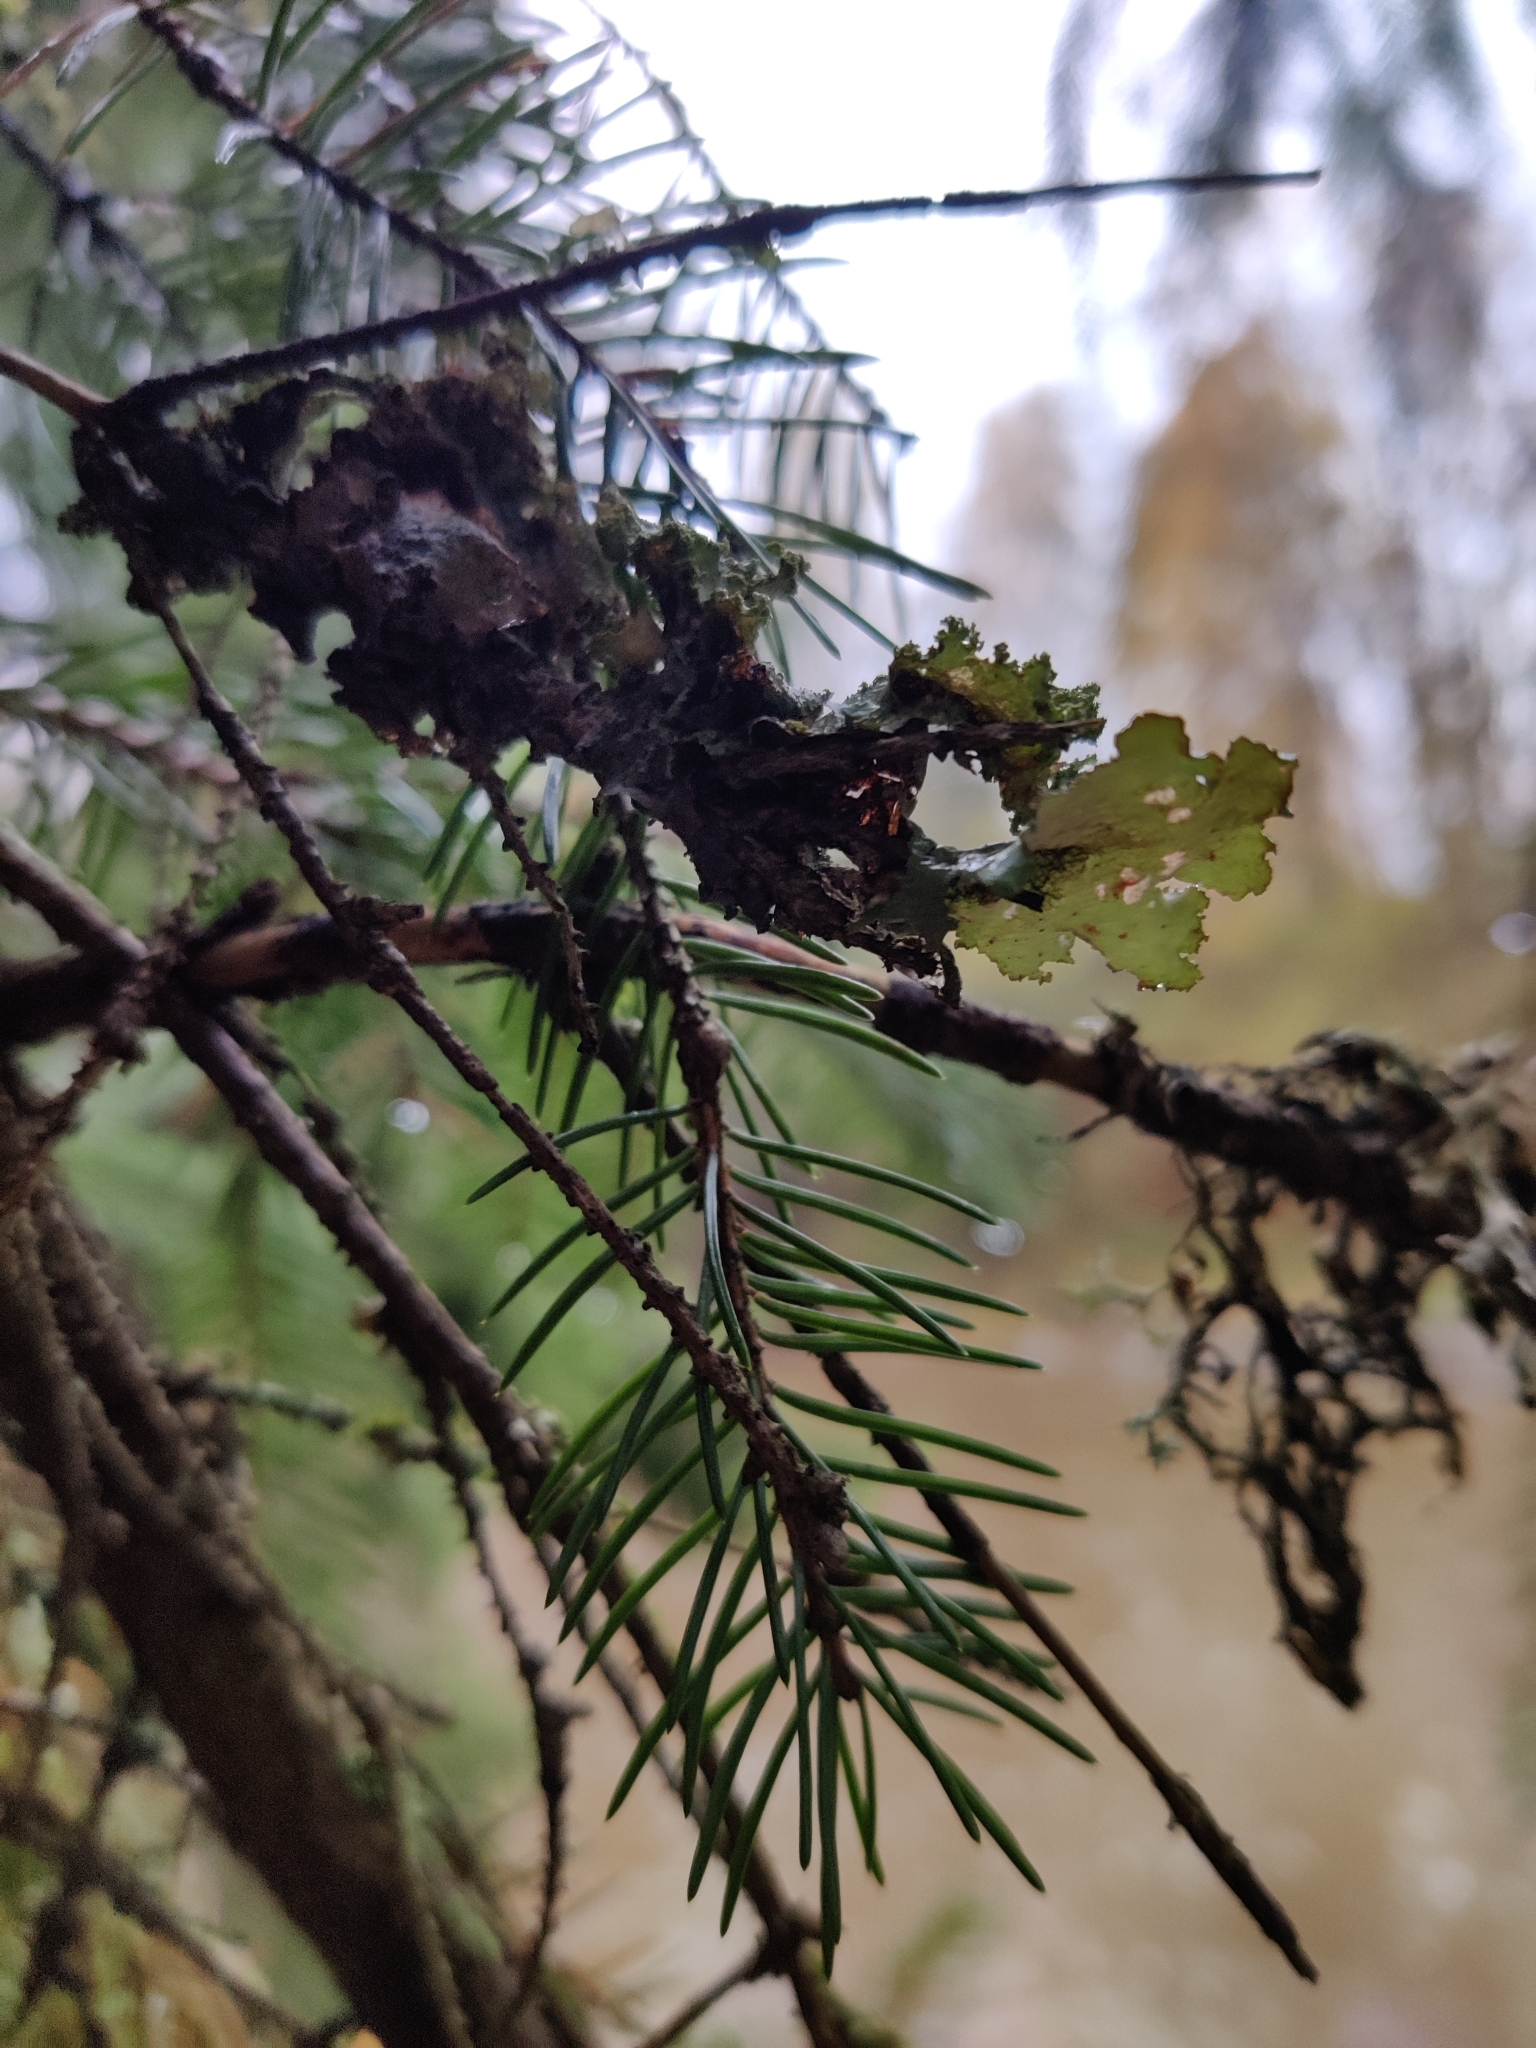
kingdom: Fungi
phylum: Ascomycota
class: Lecanoromycetes
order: Lecanorales
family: Parmeliaceae
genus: Platismatia
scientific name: Platismatia glauca
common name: Varied rag lichen
